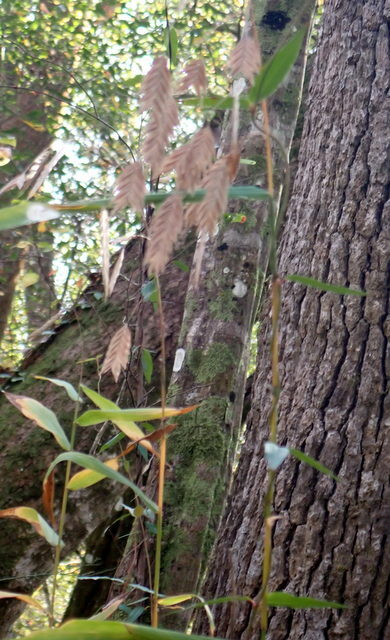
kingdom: Plantae
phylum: Tracheophyta
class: Liliopsida
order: Poales
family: Poaceae
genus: Chasmanthium
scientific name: Chasmanthium latifolium
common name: Broad-leaved chasmanthium
